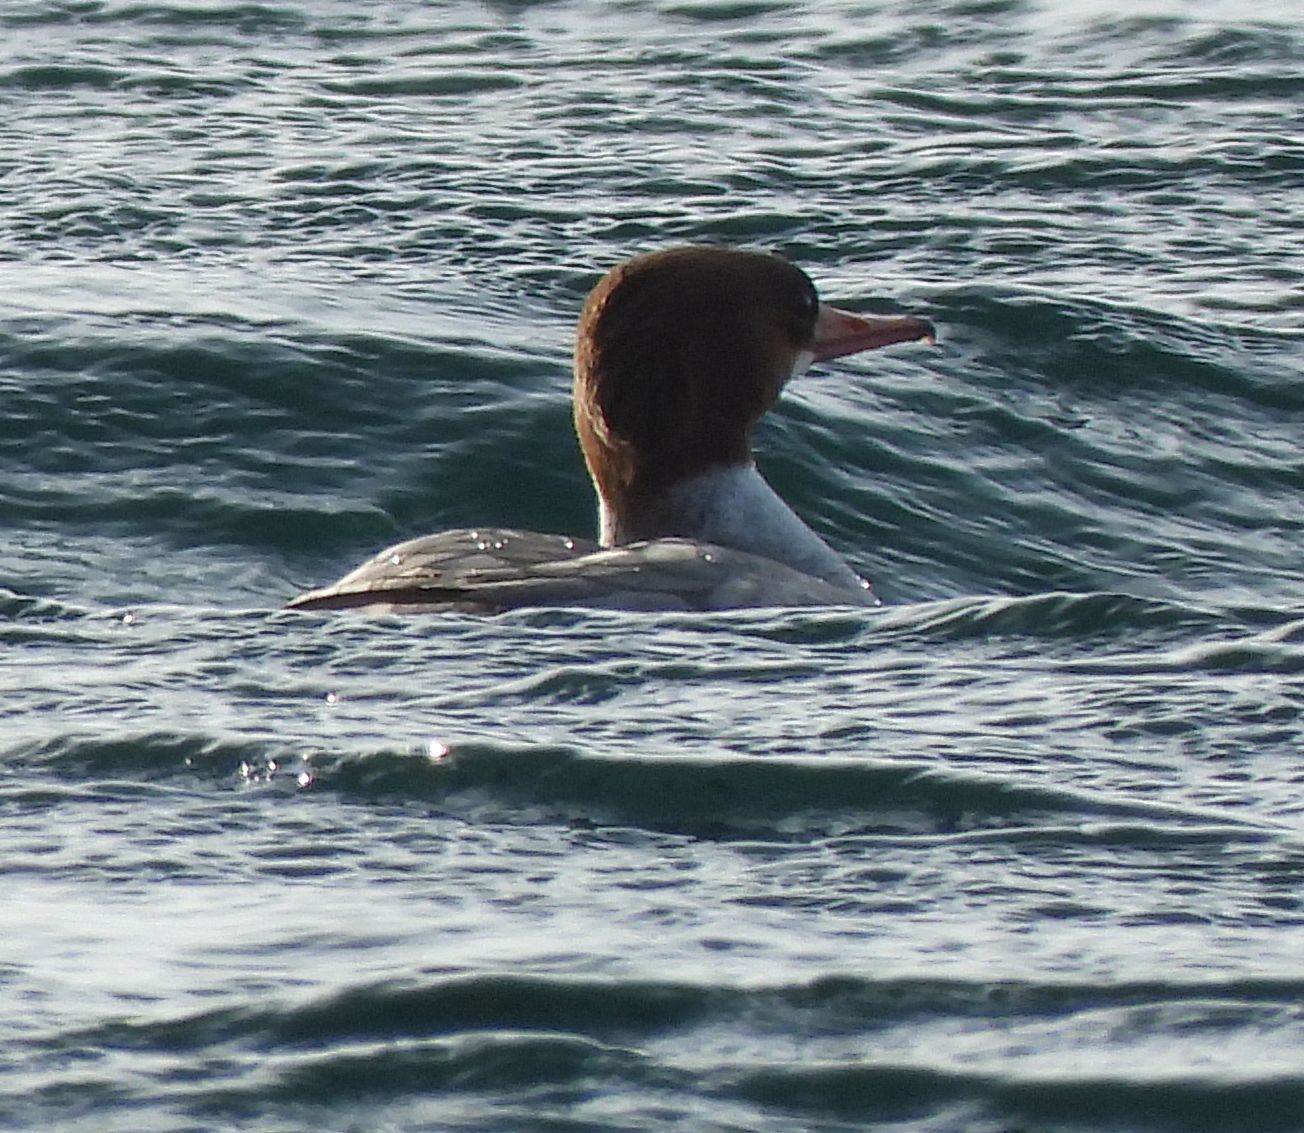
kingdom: Animalia
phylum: Chordata
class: Aves
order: Anseriformes
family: Anatidae
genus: Mergus
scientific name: Mergus merganser
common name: Common merganser
